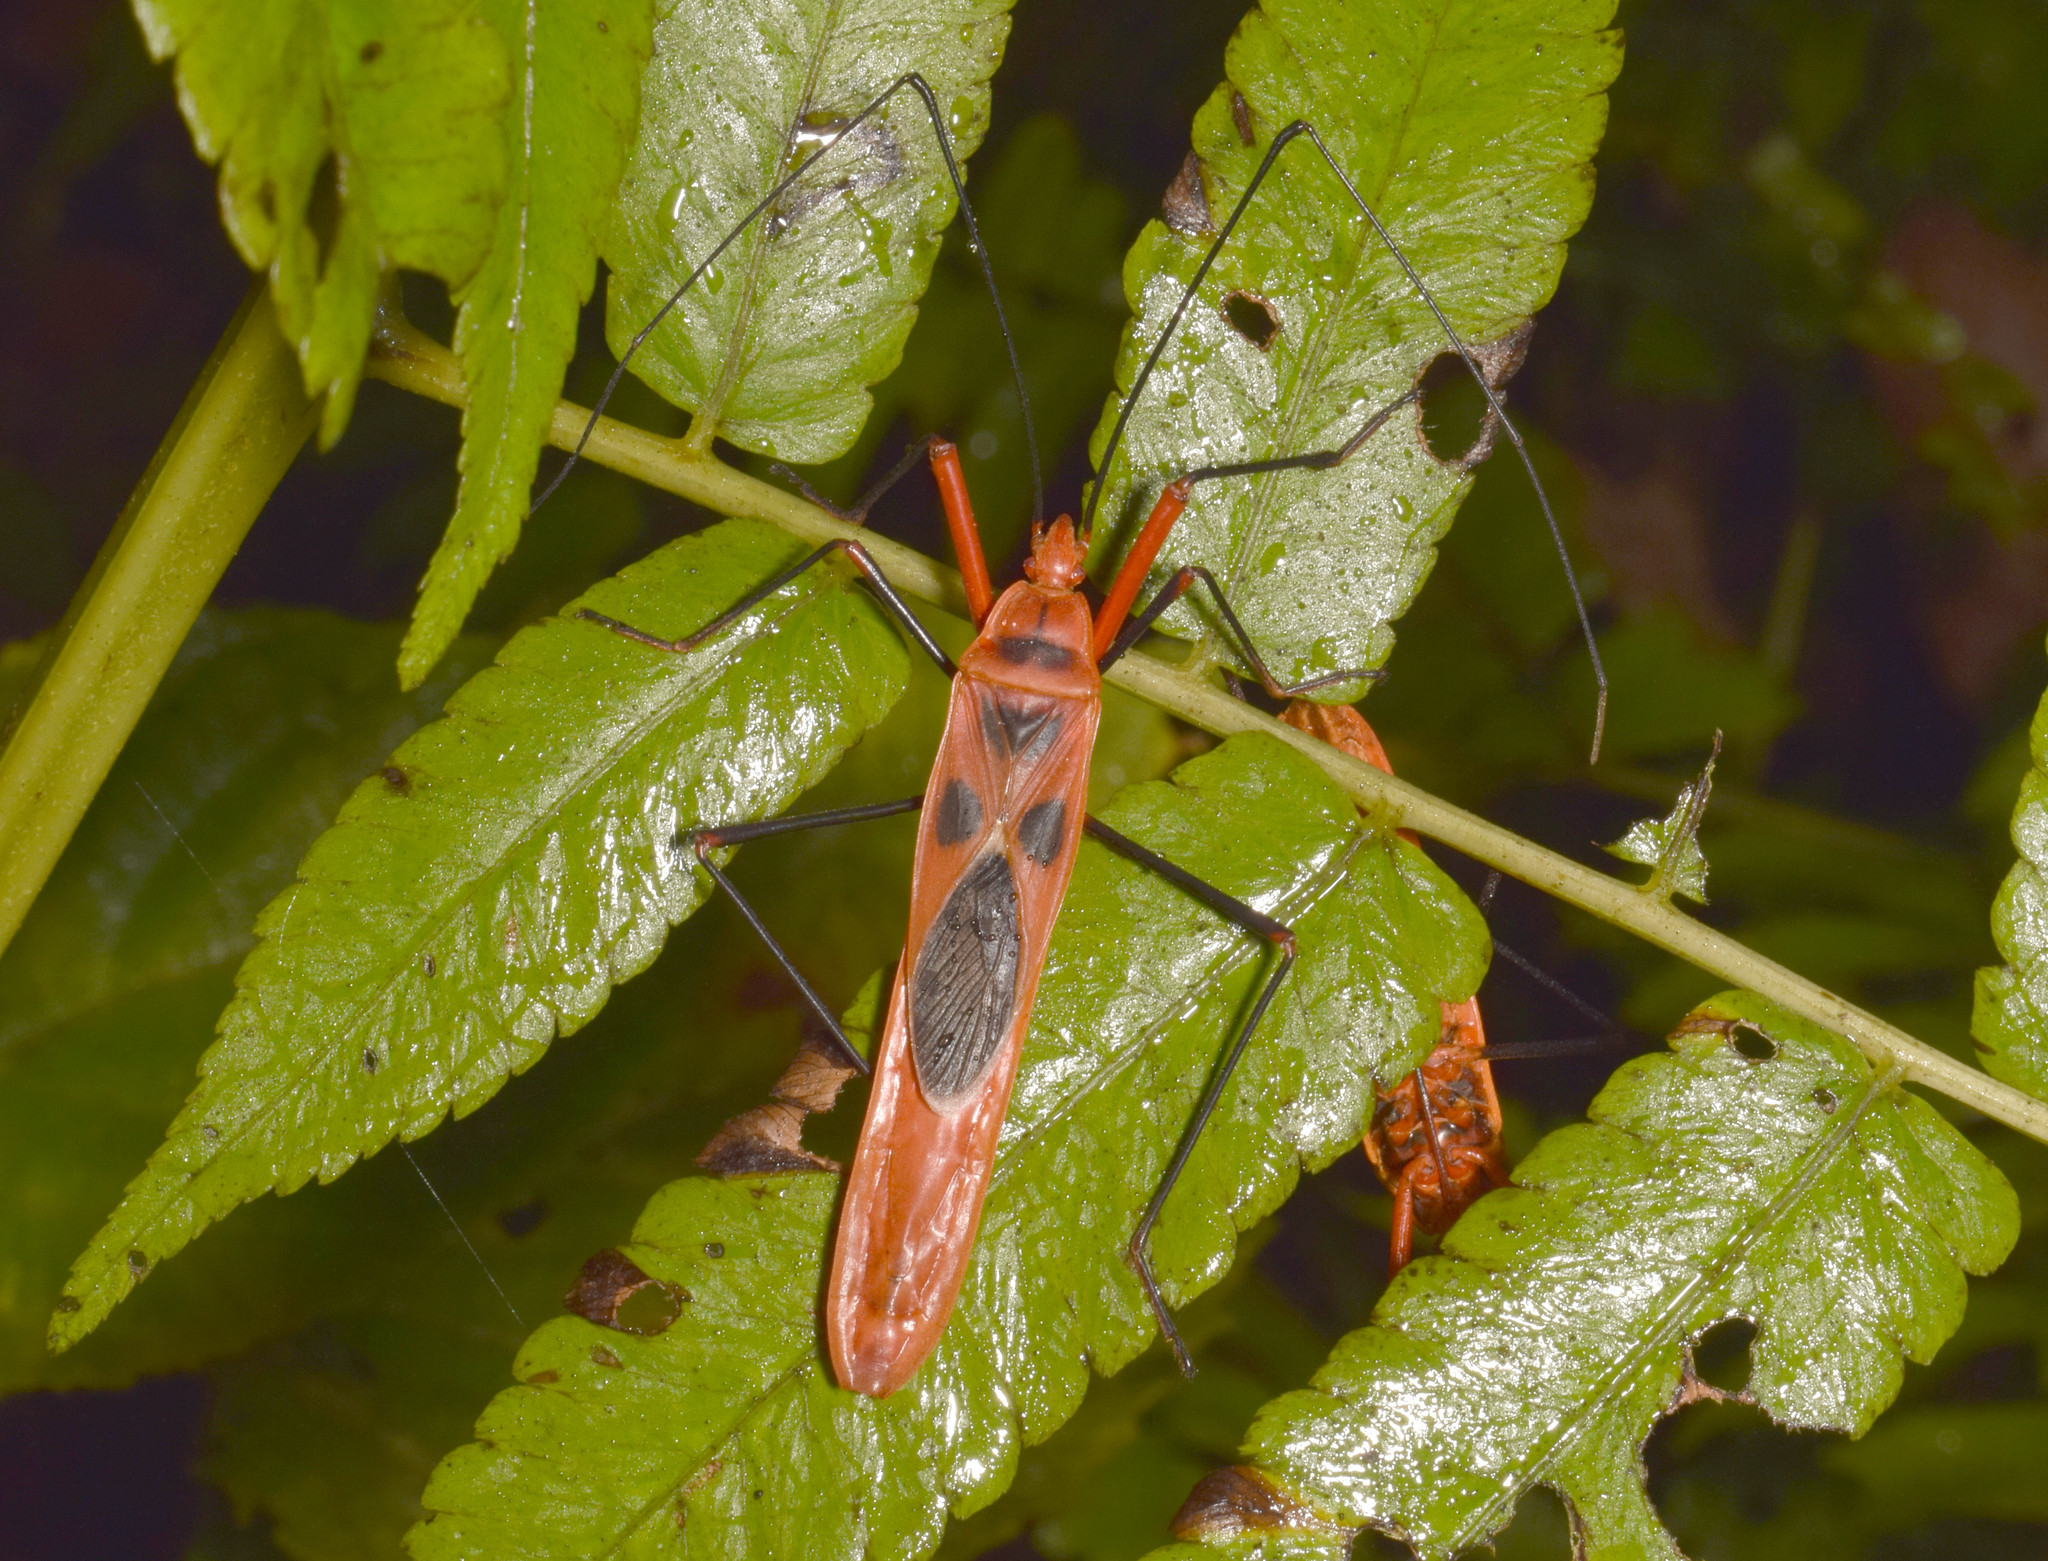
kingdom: Animalia
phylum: Arthropoda
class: Insecta
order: Hemiptera
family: Largidae
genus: Macrocheraia
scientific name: Macrocheraia grandis
